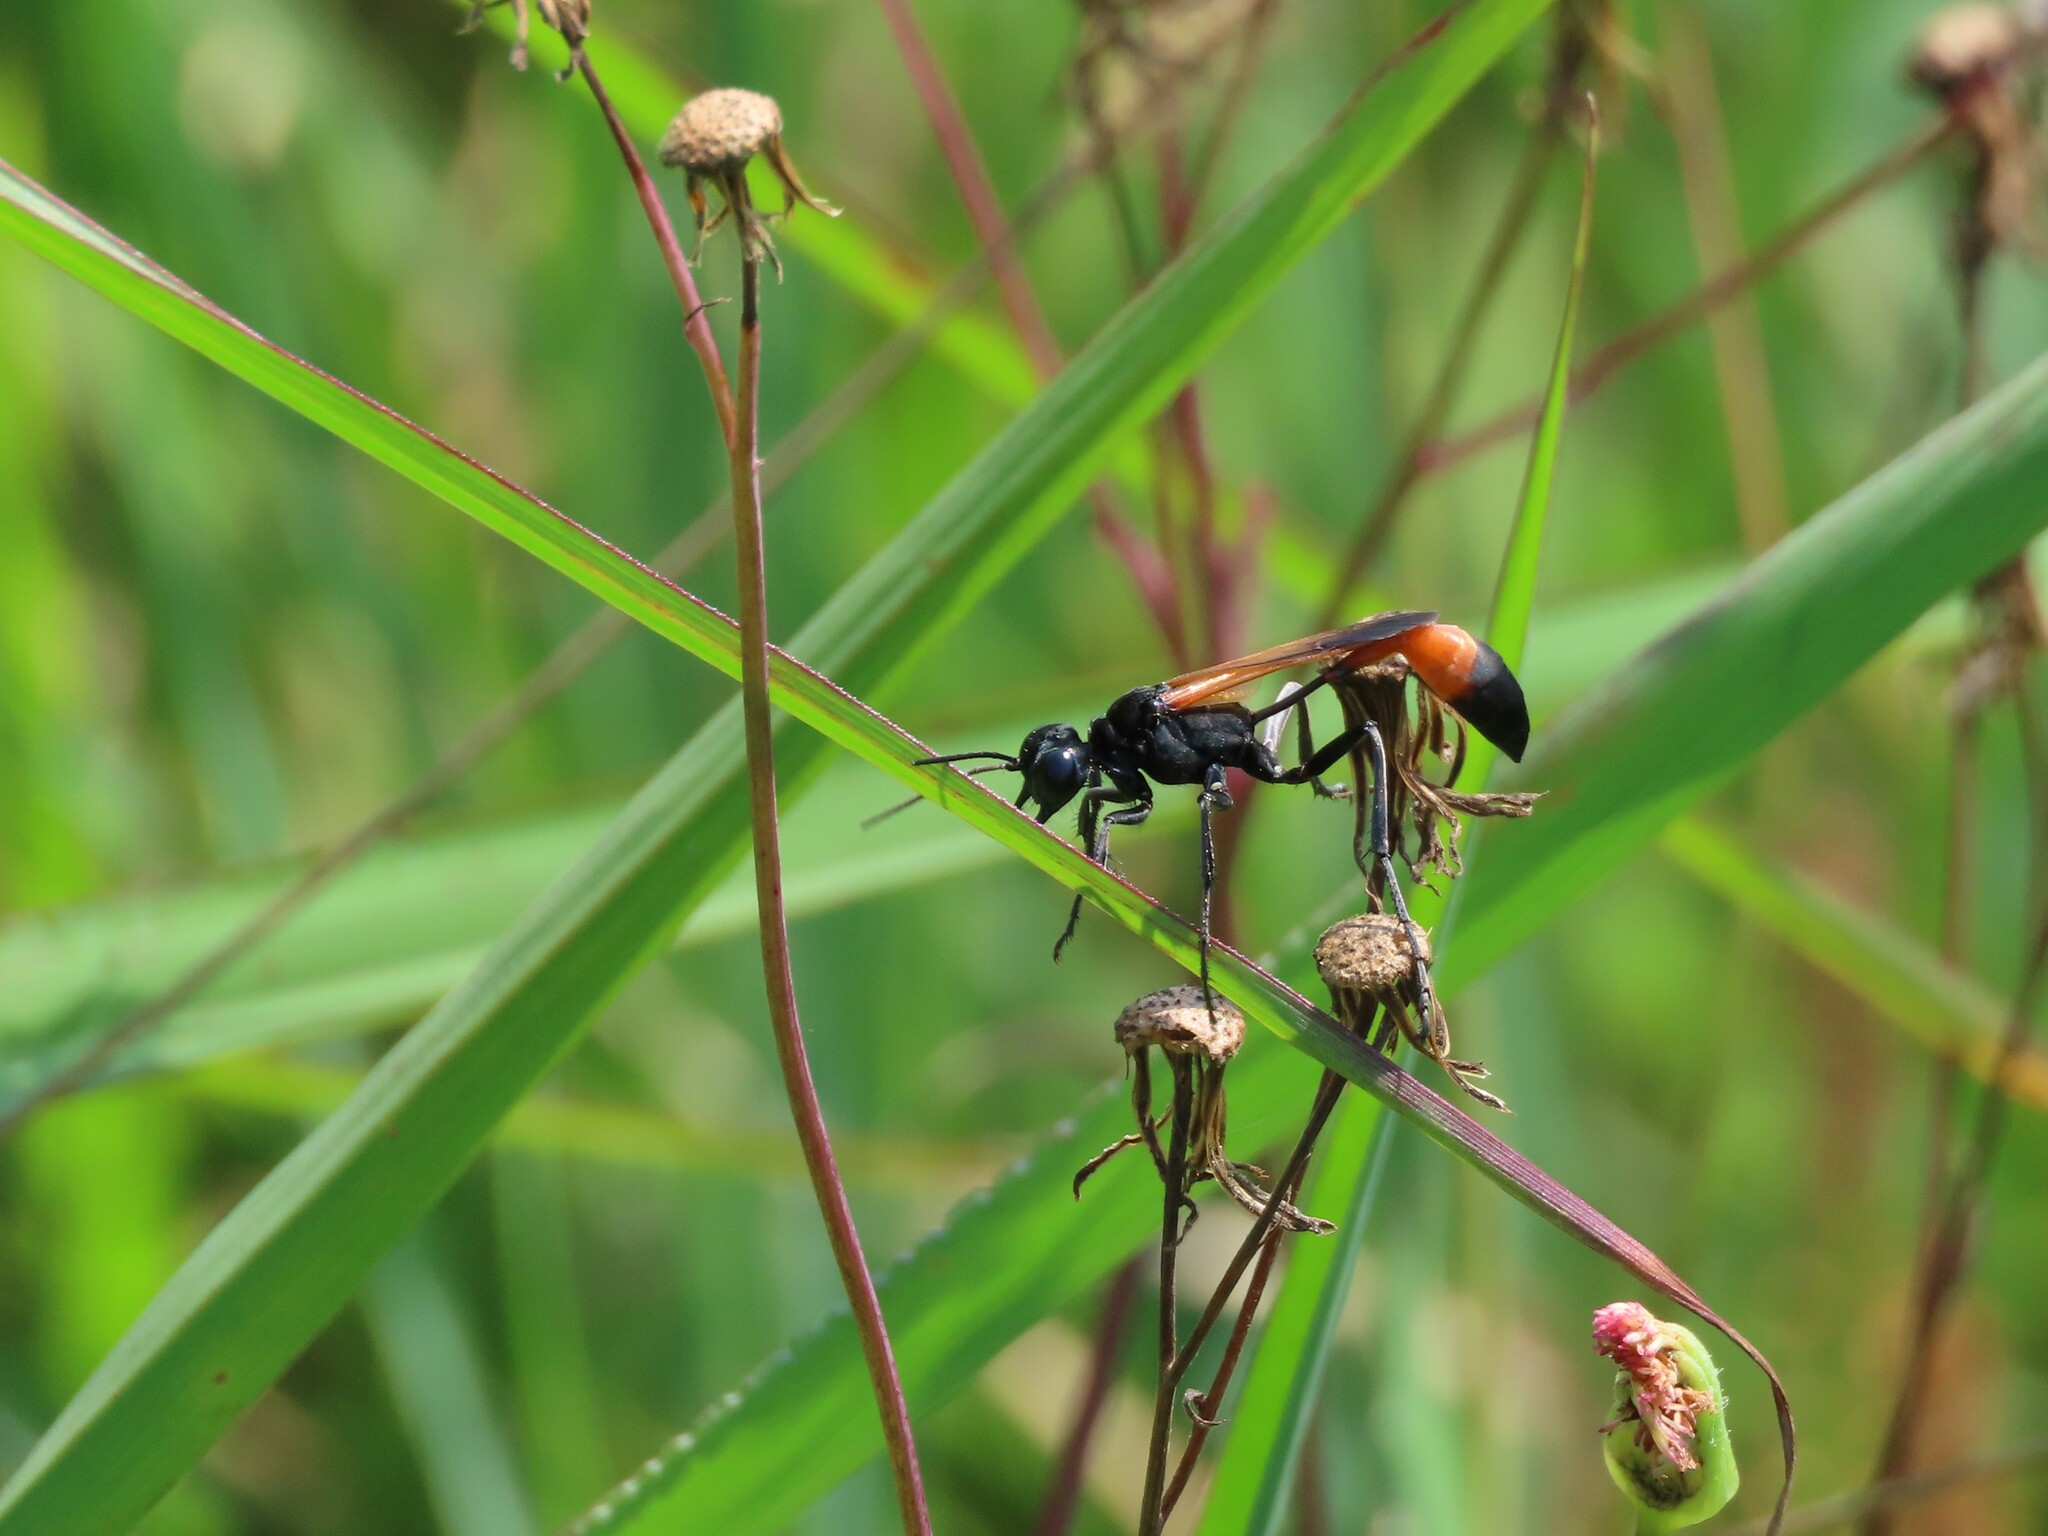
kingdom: Animalia
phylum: Arthropoda
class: Insecta
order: Hymenoptera
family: Sphecidae
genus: Ammophila
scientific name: Ammophila pictipennis
